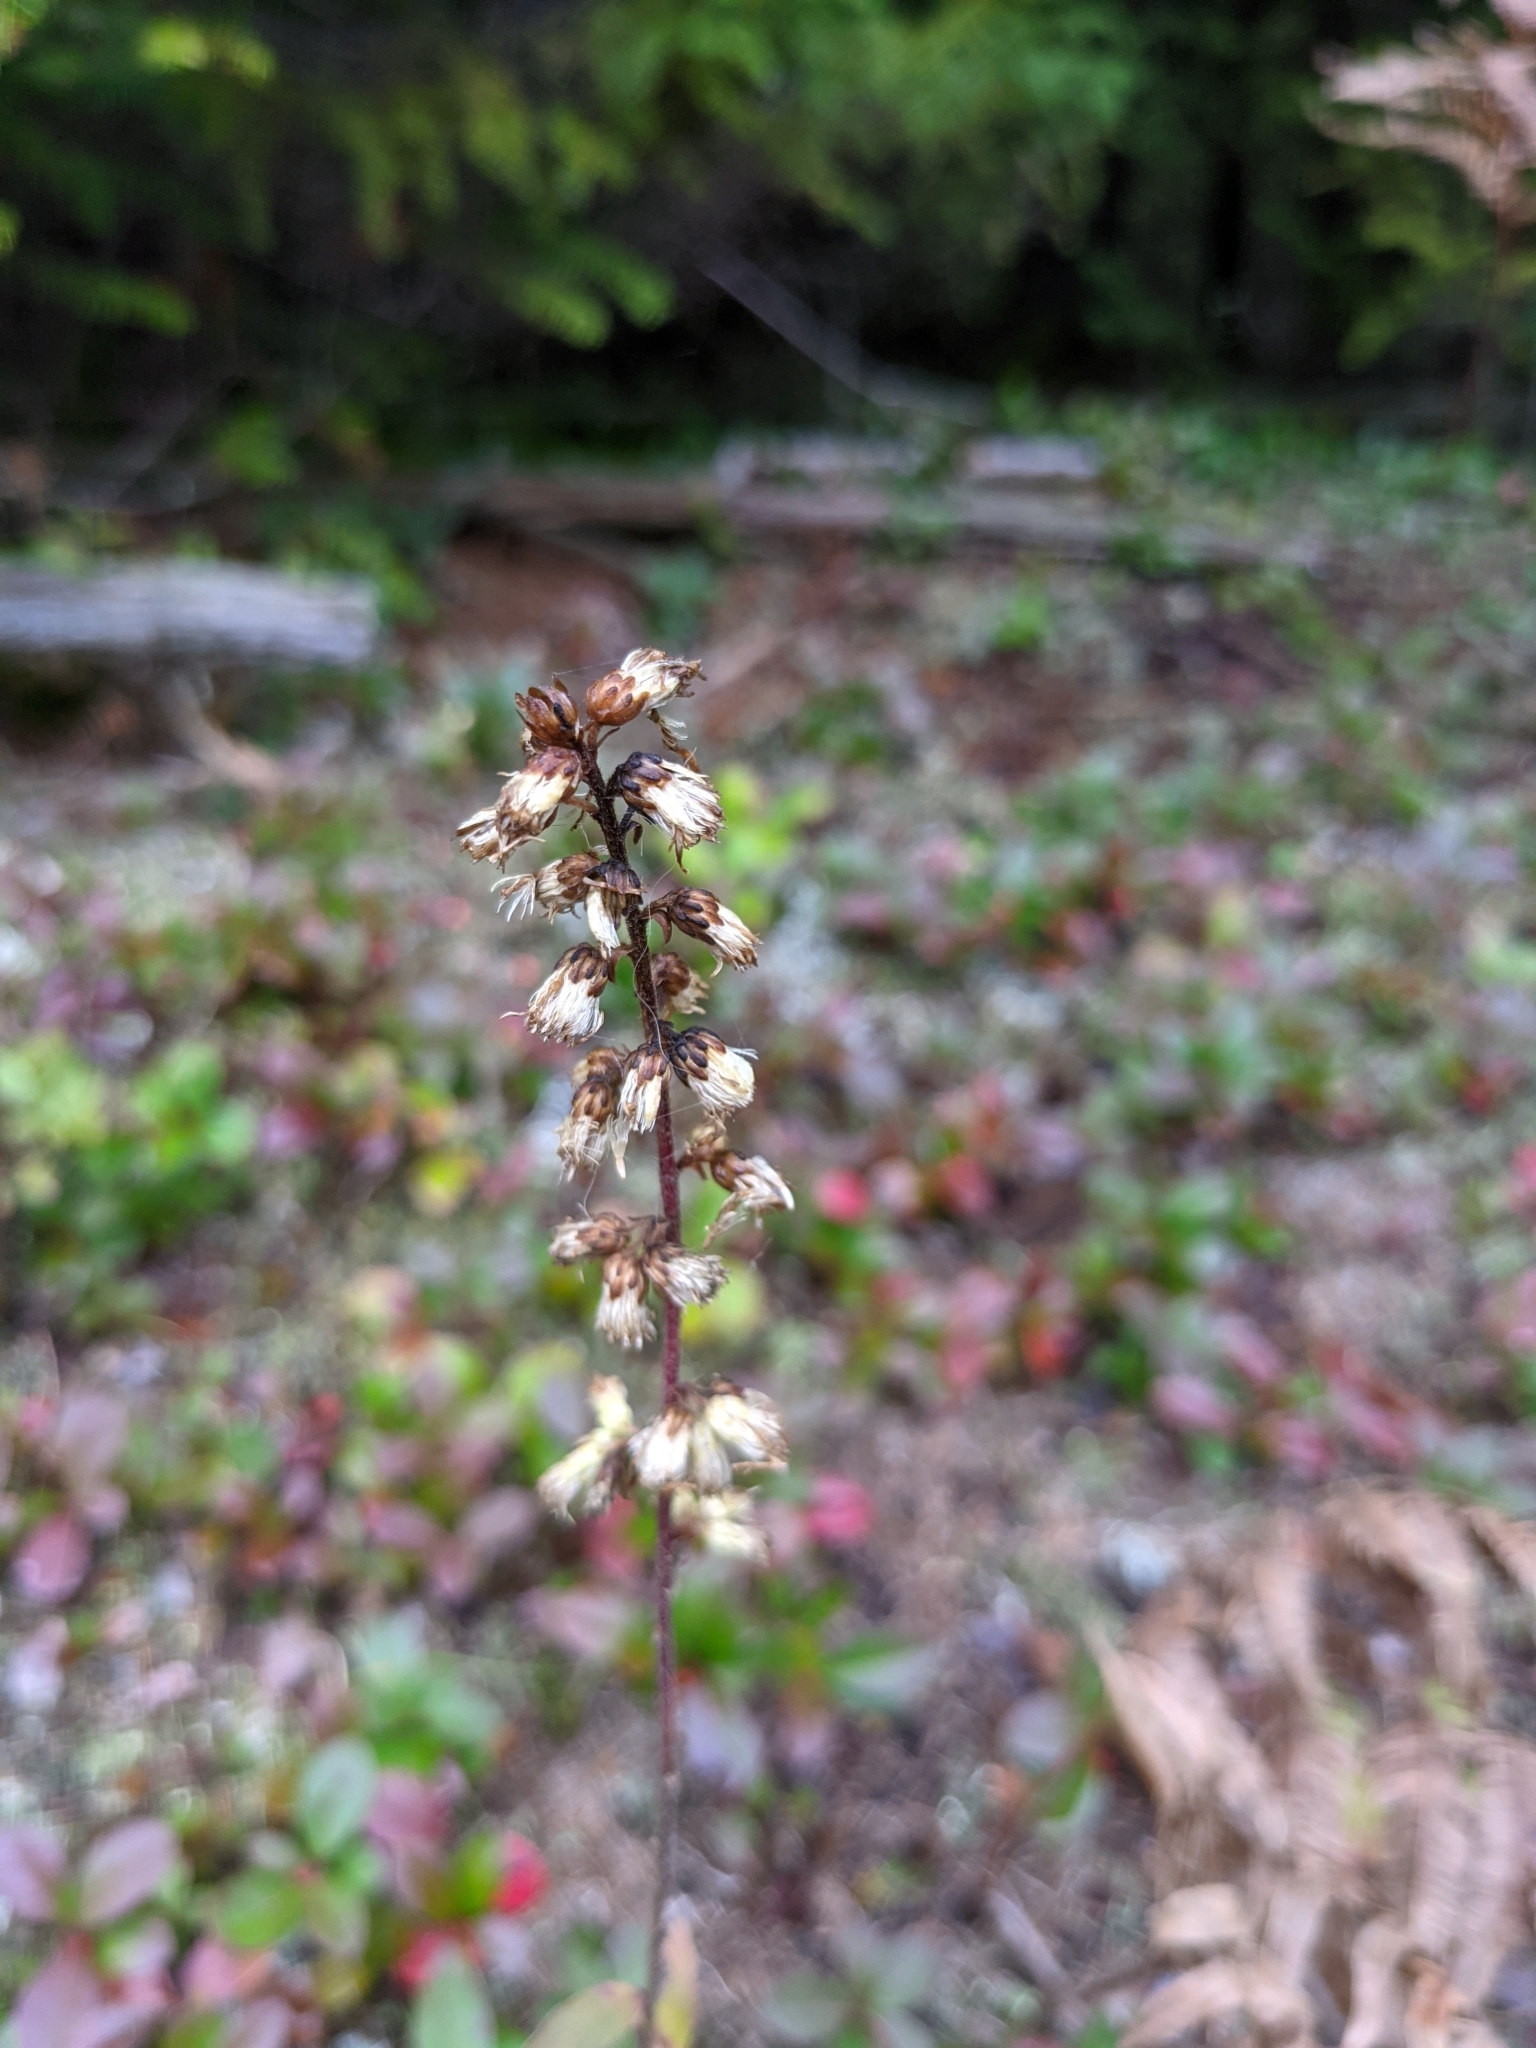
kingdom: Plantae
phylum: Tracheophyta
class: Magnoliopsida
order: Asterales
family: Asteraceae
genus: Solidago
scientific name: Solidago bicolor
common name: Silverrod
